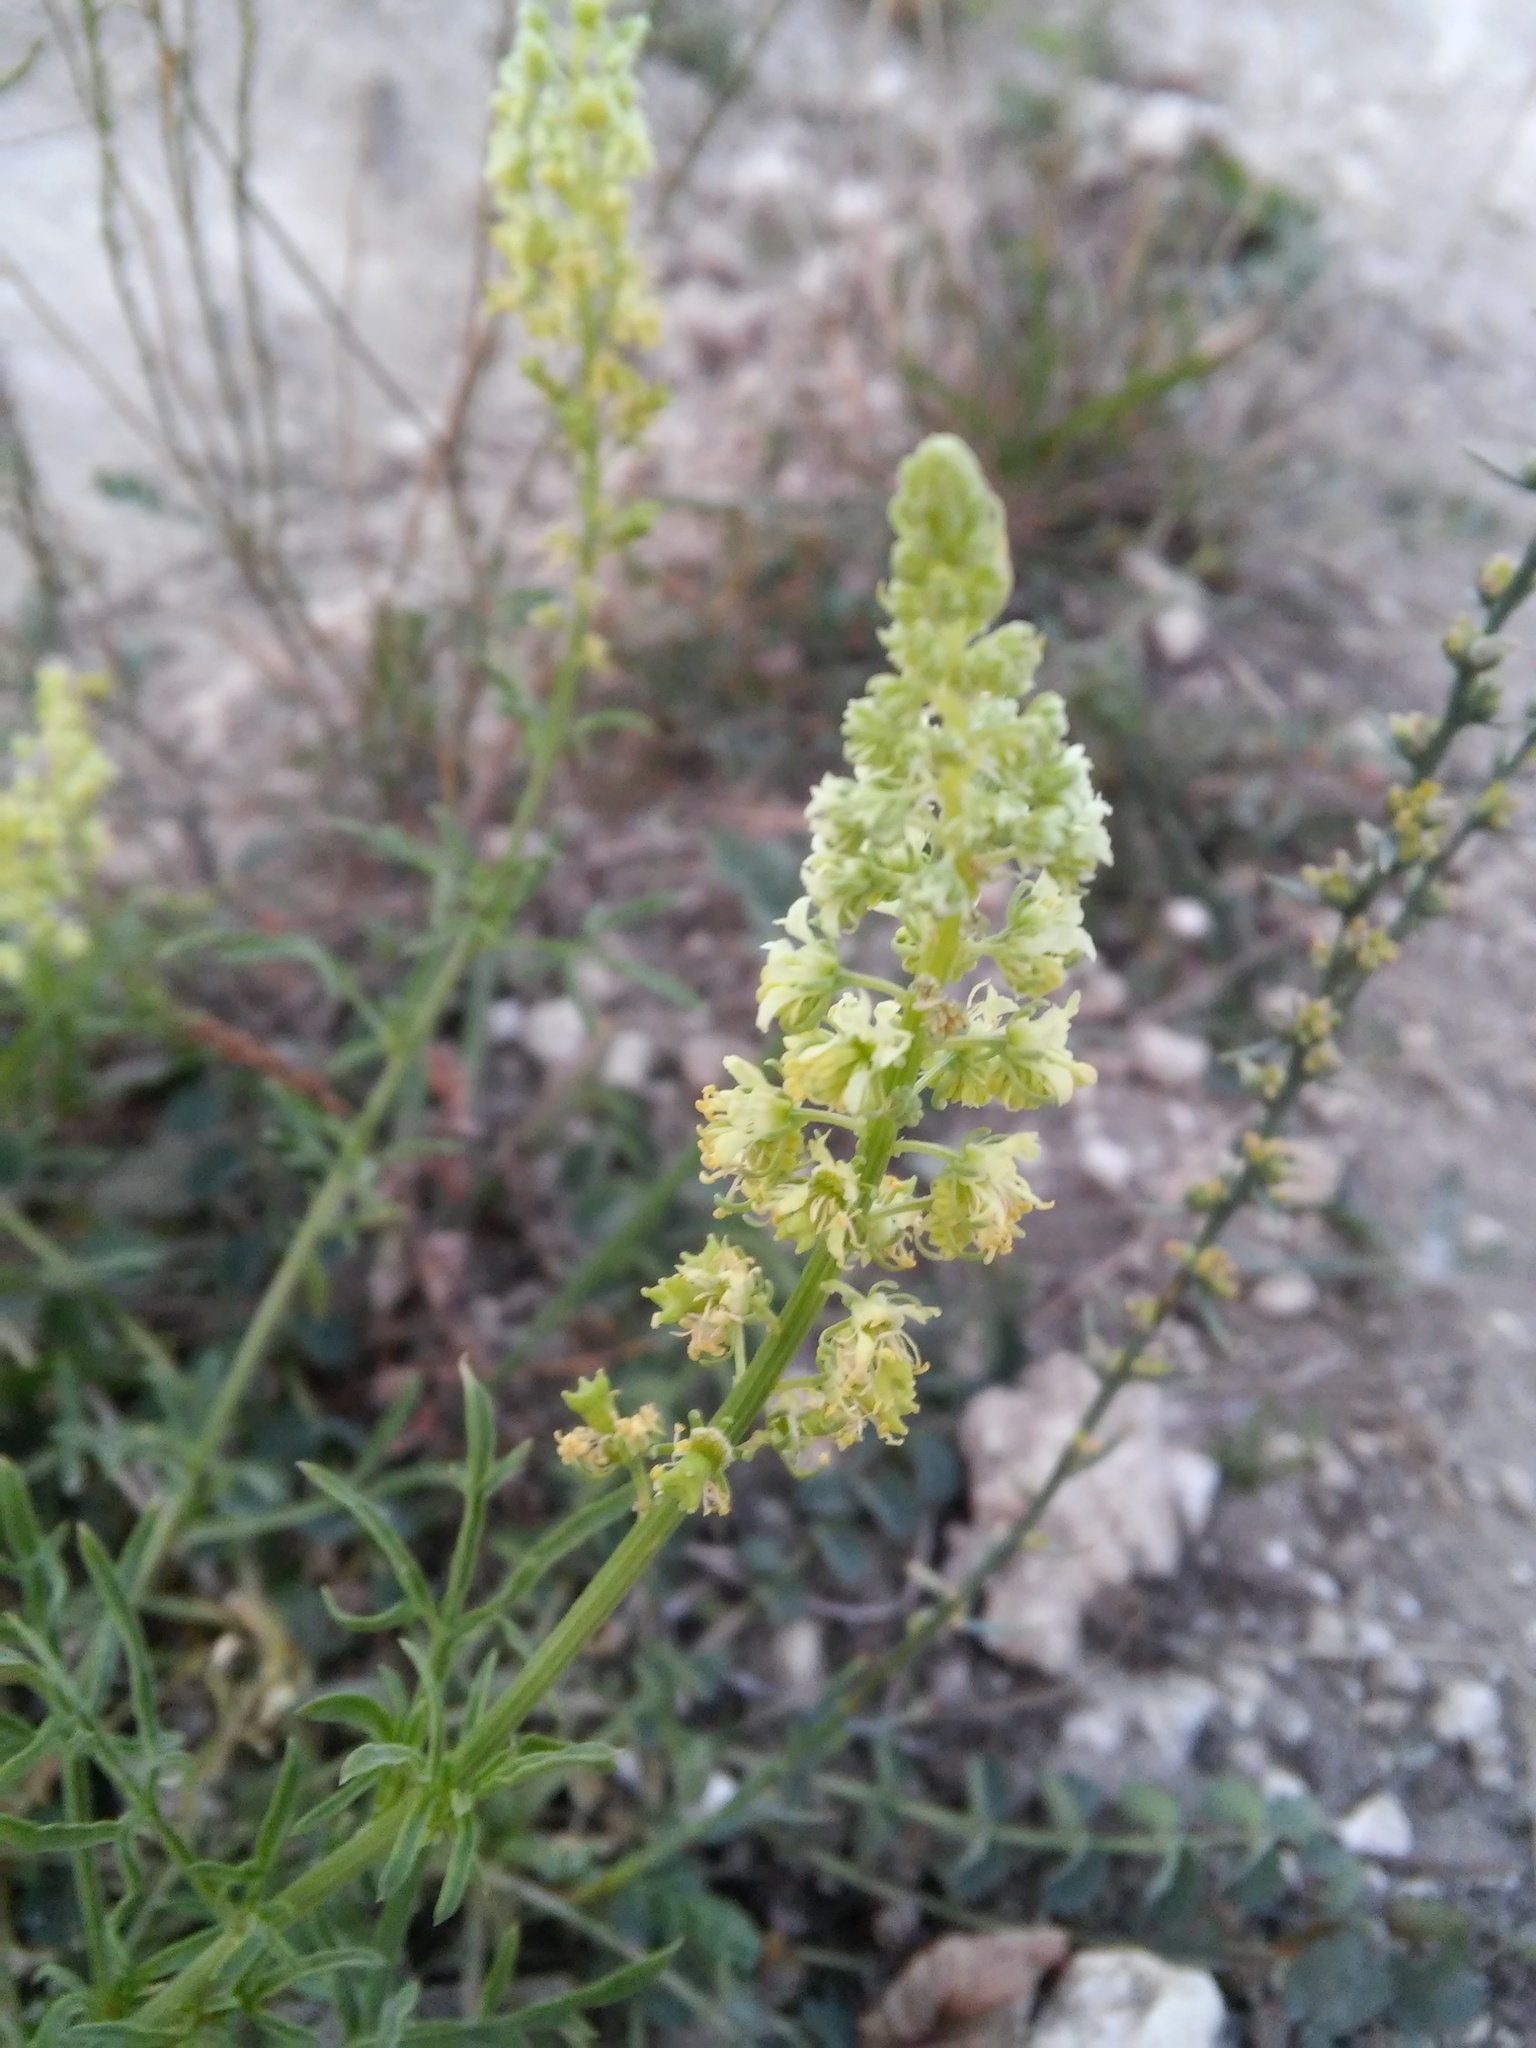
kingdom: Plantae
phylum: Tracheophyta
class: Magnoliopsida
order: Brassicales
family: Resedaceae
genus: Reseda
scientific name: Reseda lutea
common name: Wild mignonette
